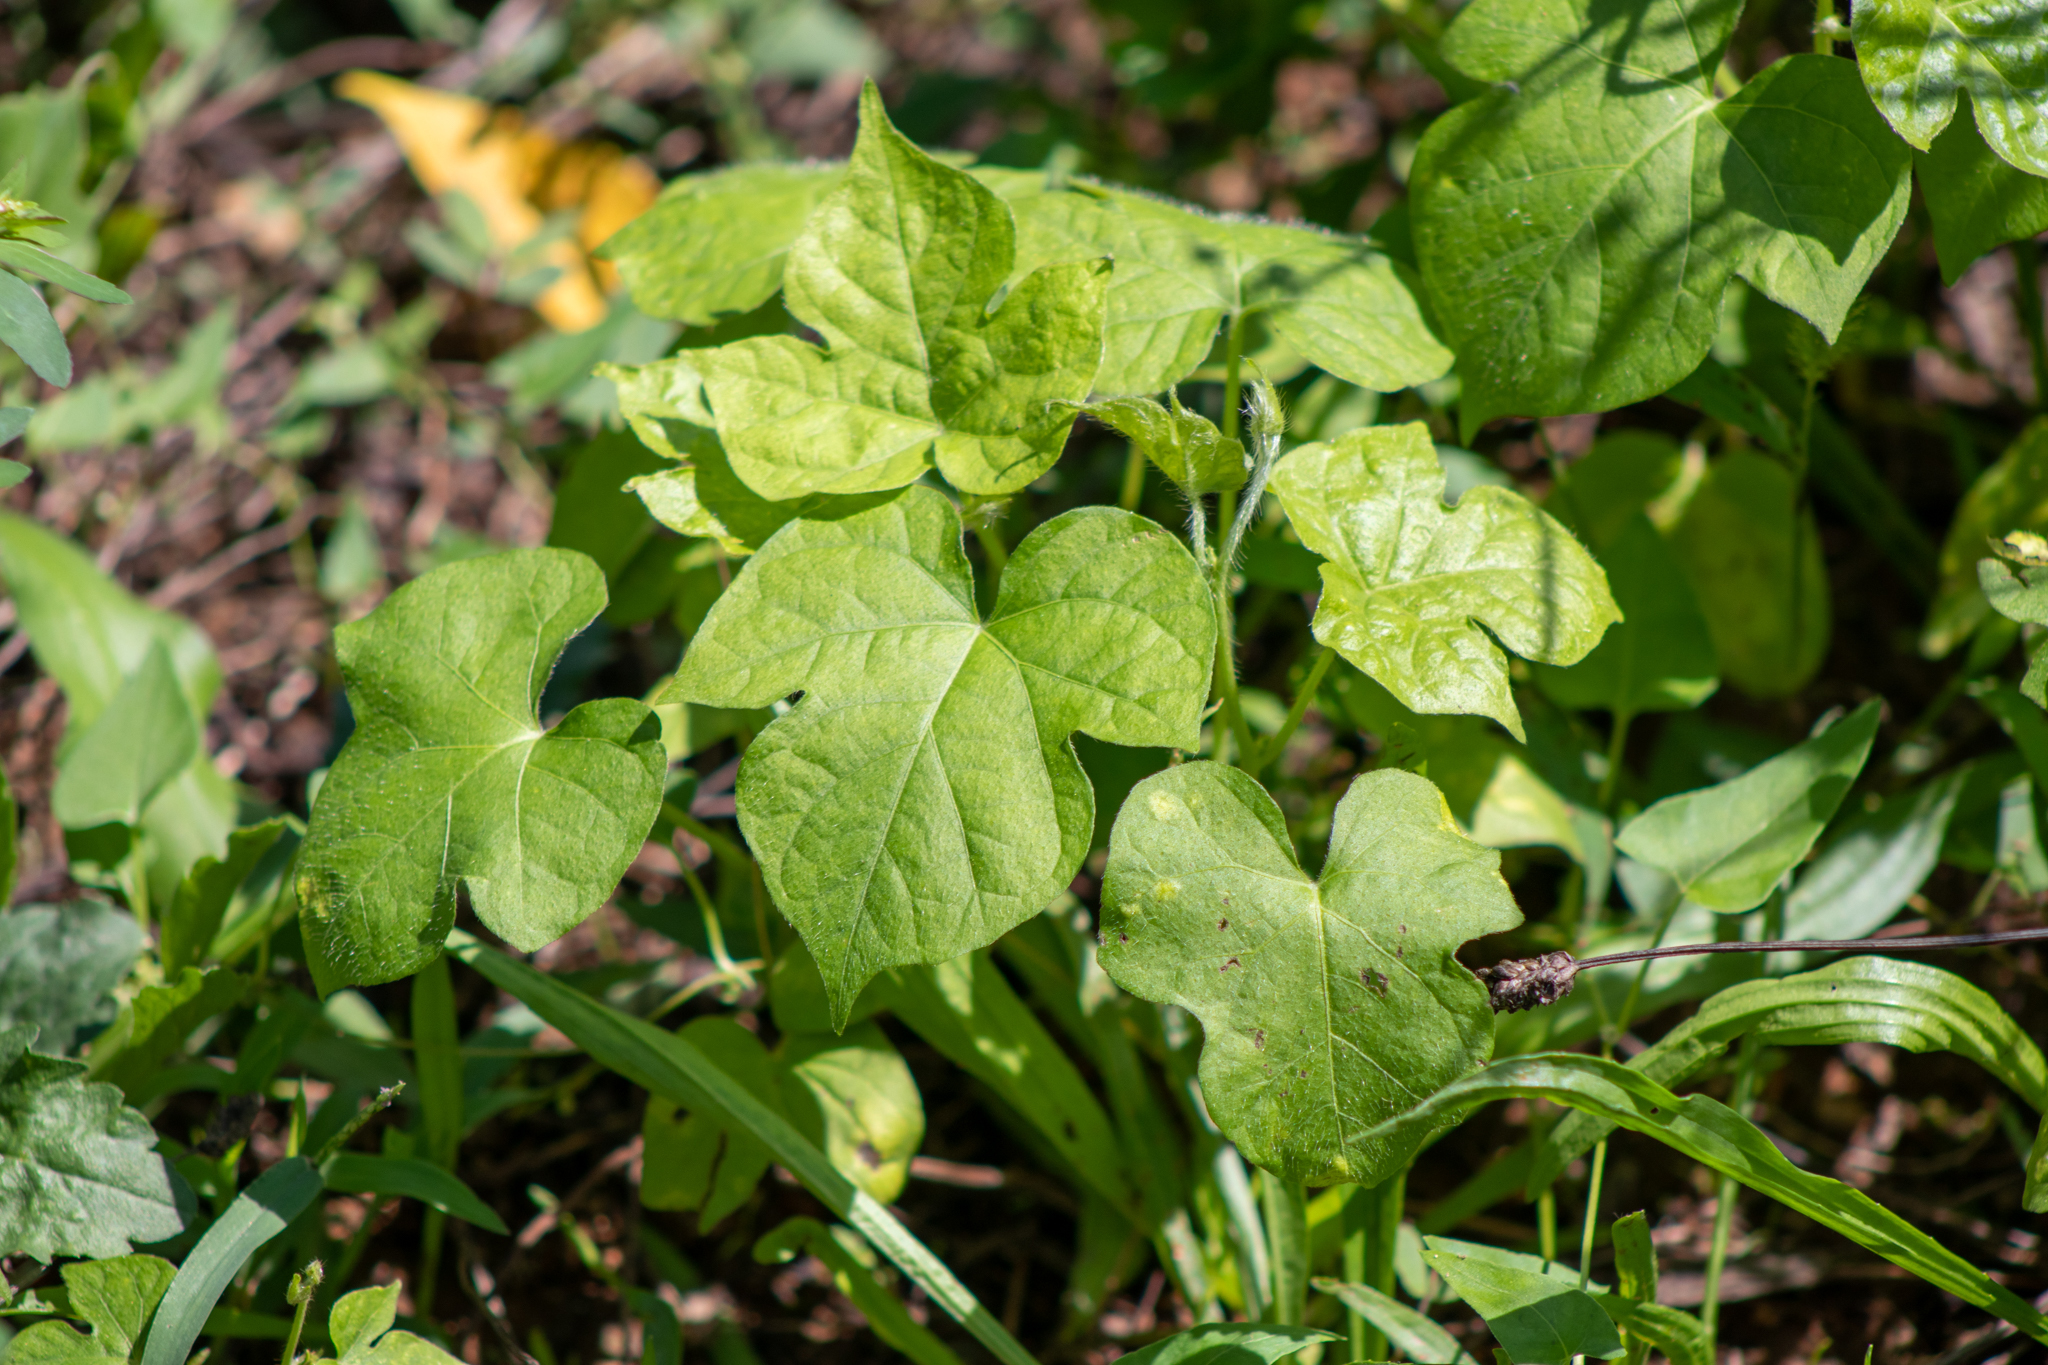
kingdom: Plantae
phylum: Tracheophyta
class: Magnoliopsida
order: Solanales
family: Convolvulaceae
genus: Ipomoea
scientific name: Ipomoea hederacea
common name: Ivy-leaved morning-glory
